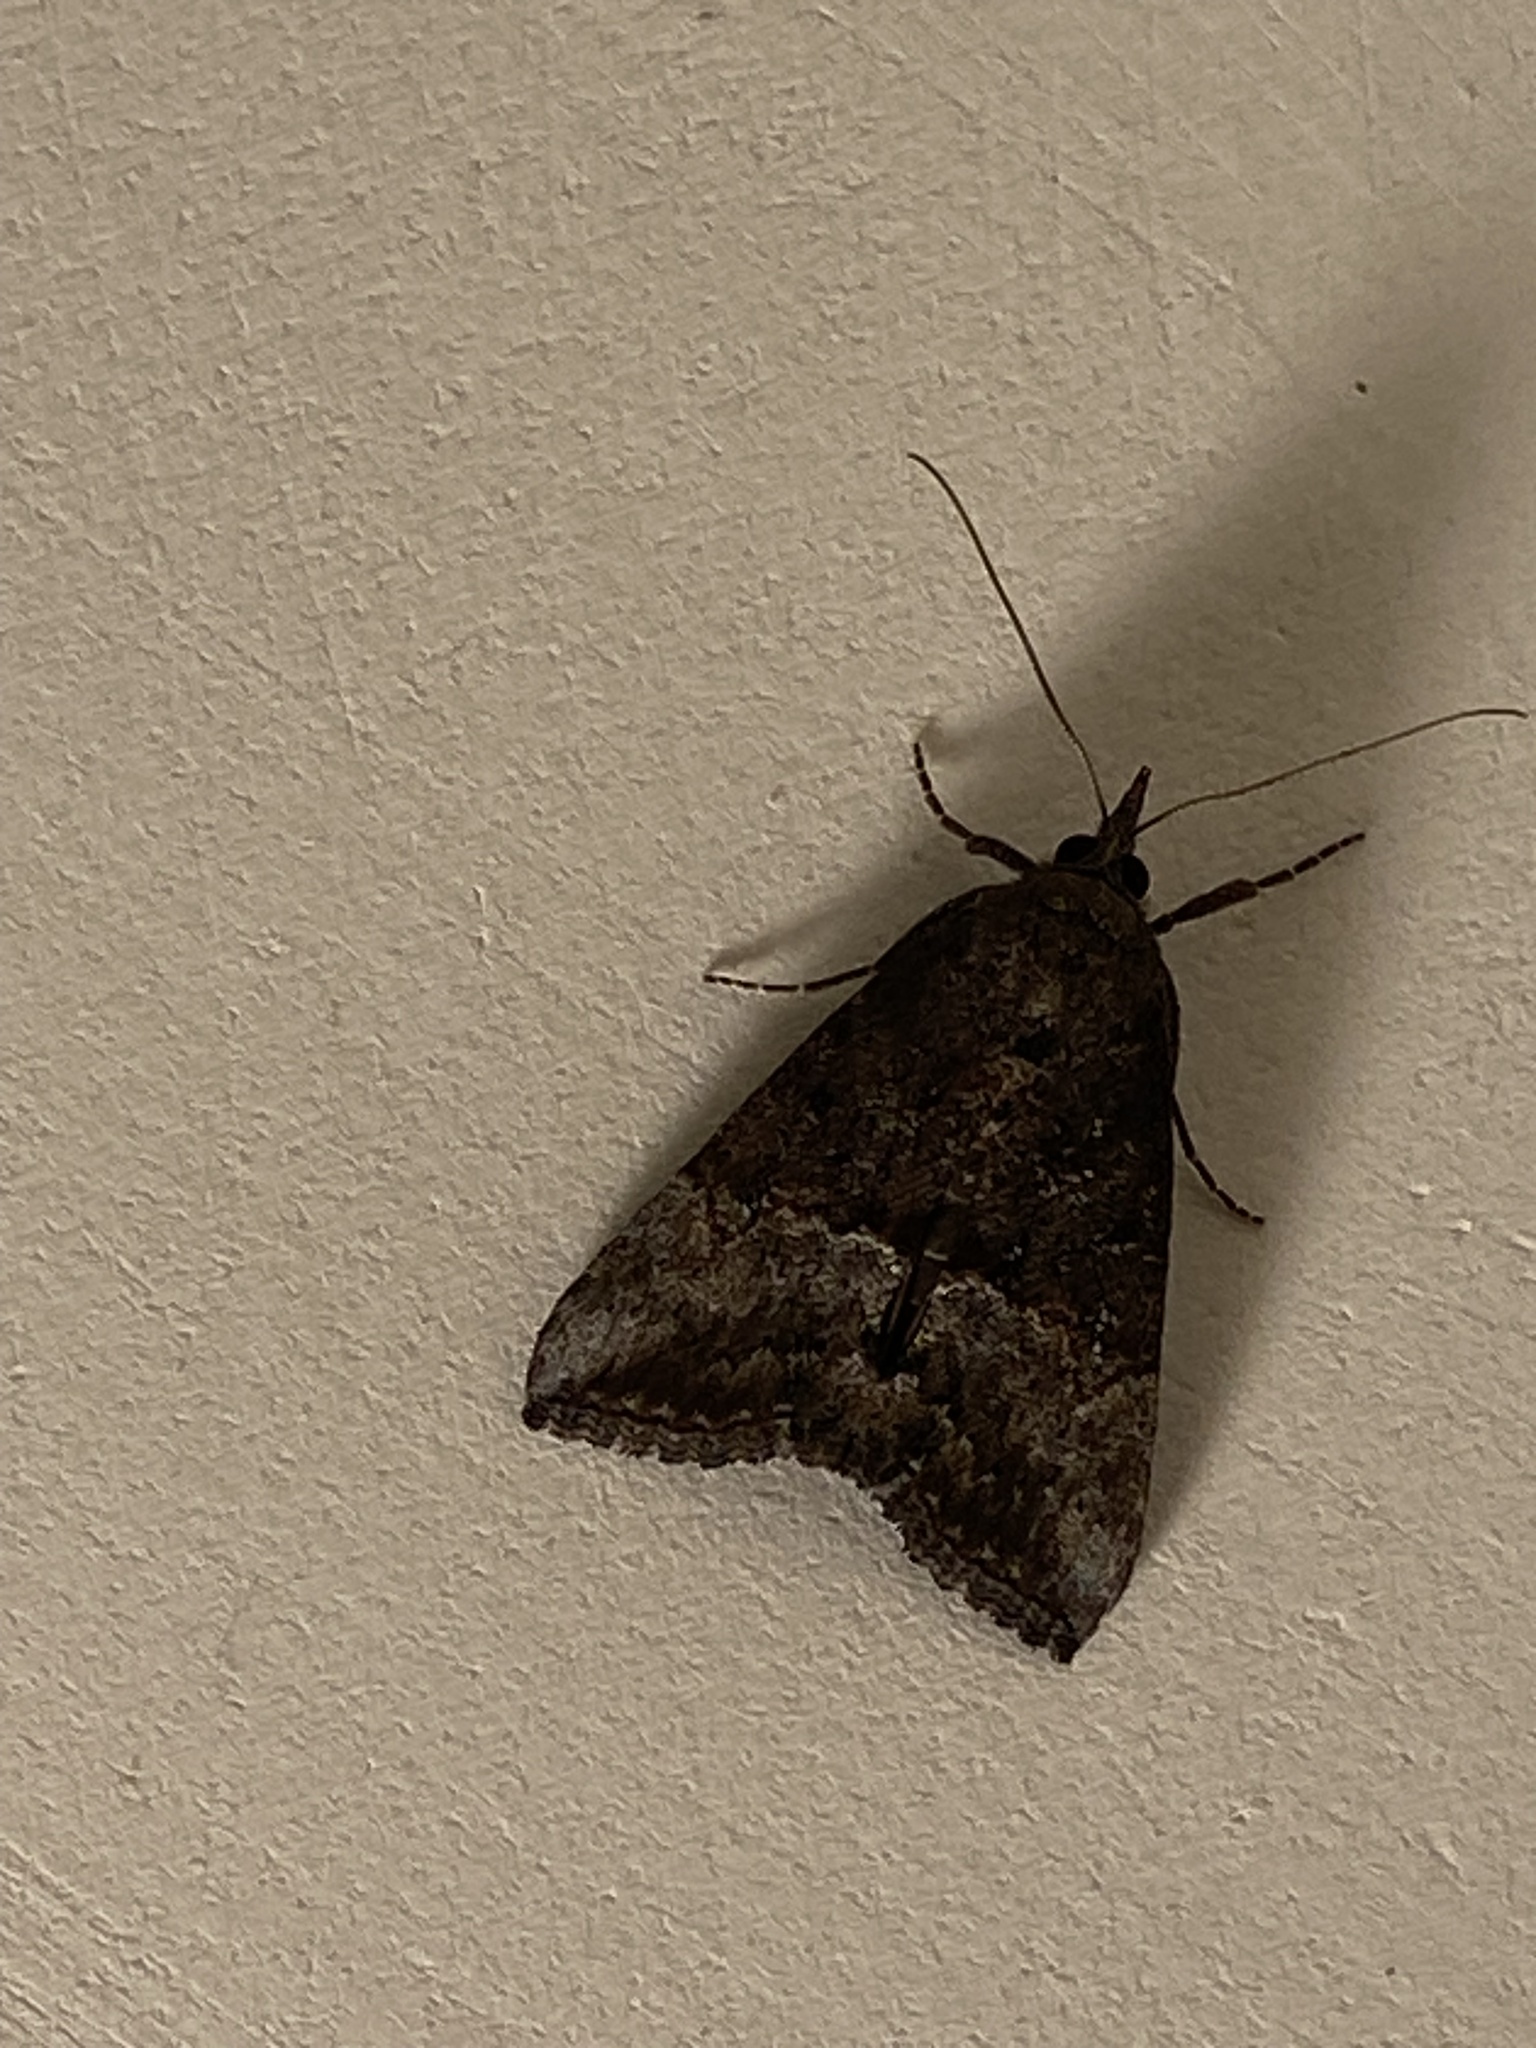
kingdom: Animalia
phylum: Arthropoda
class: Insecta
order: Lepidoptera
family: Erebidae
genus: Hypena
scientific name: Hypena scabra
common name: Green cloverworm
